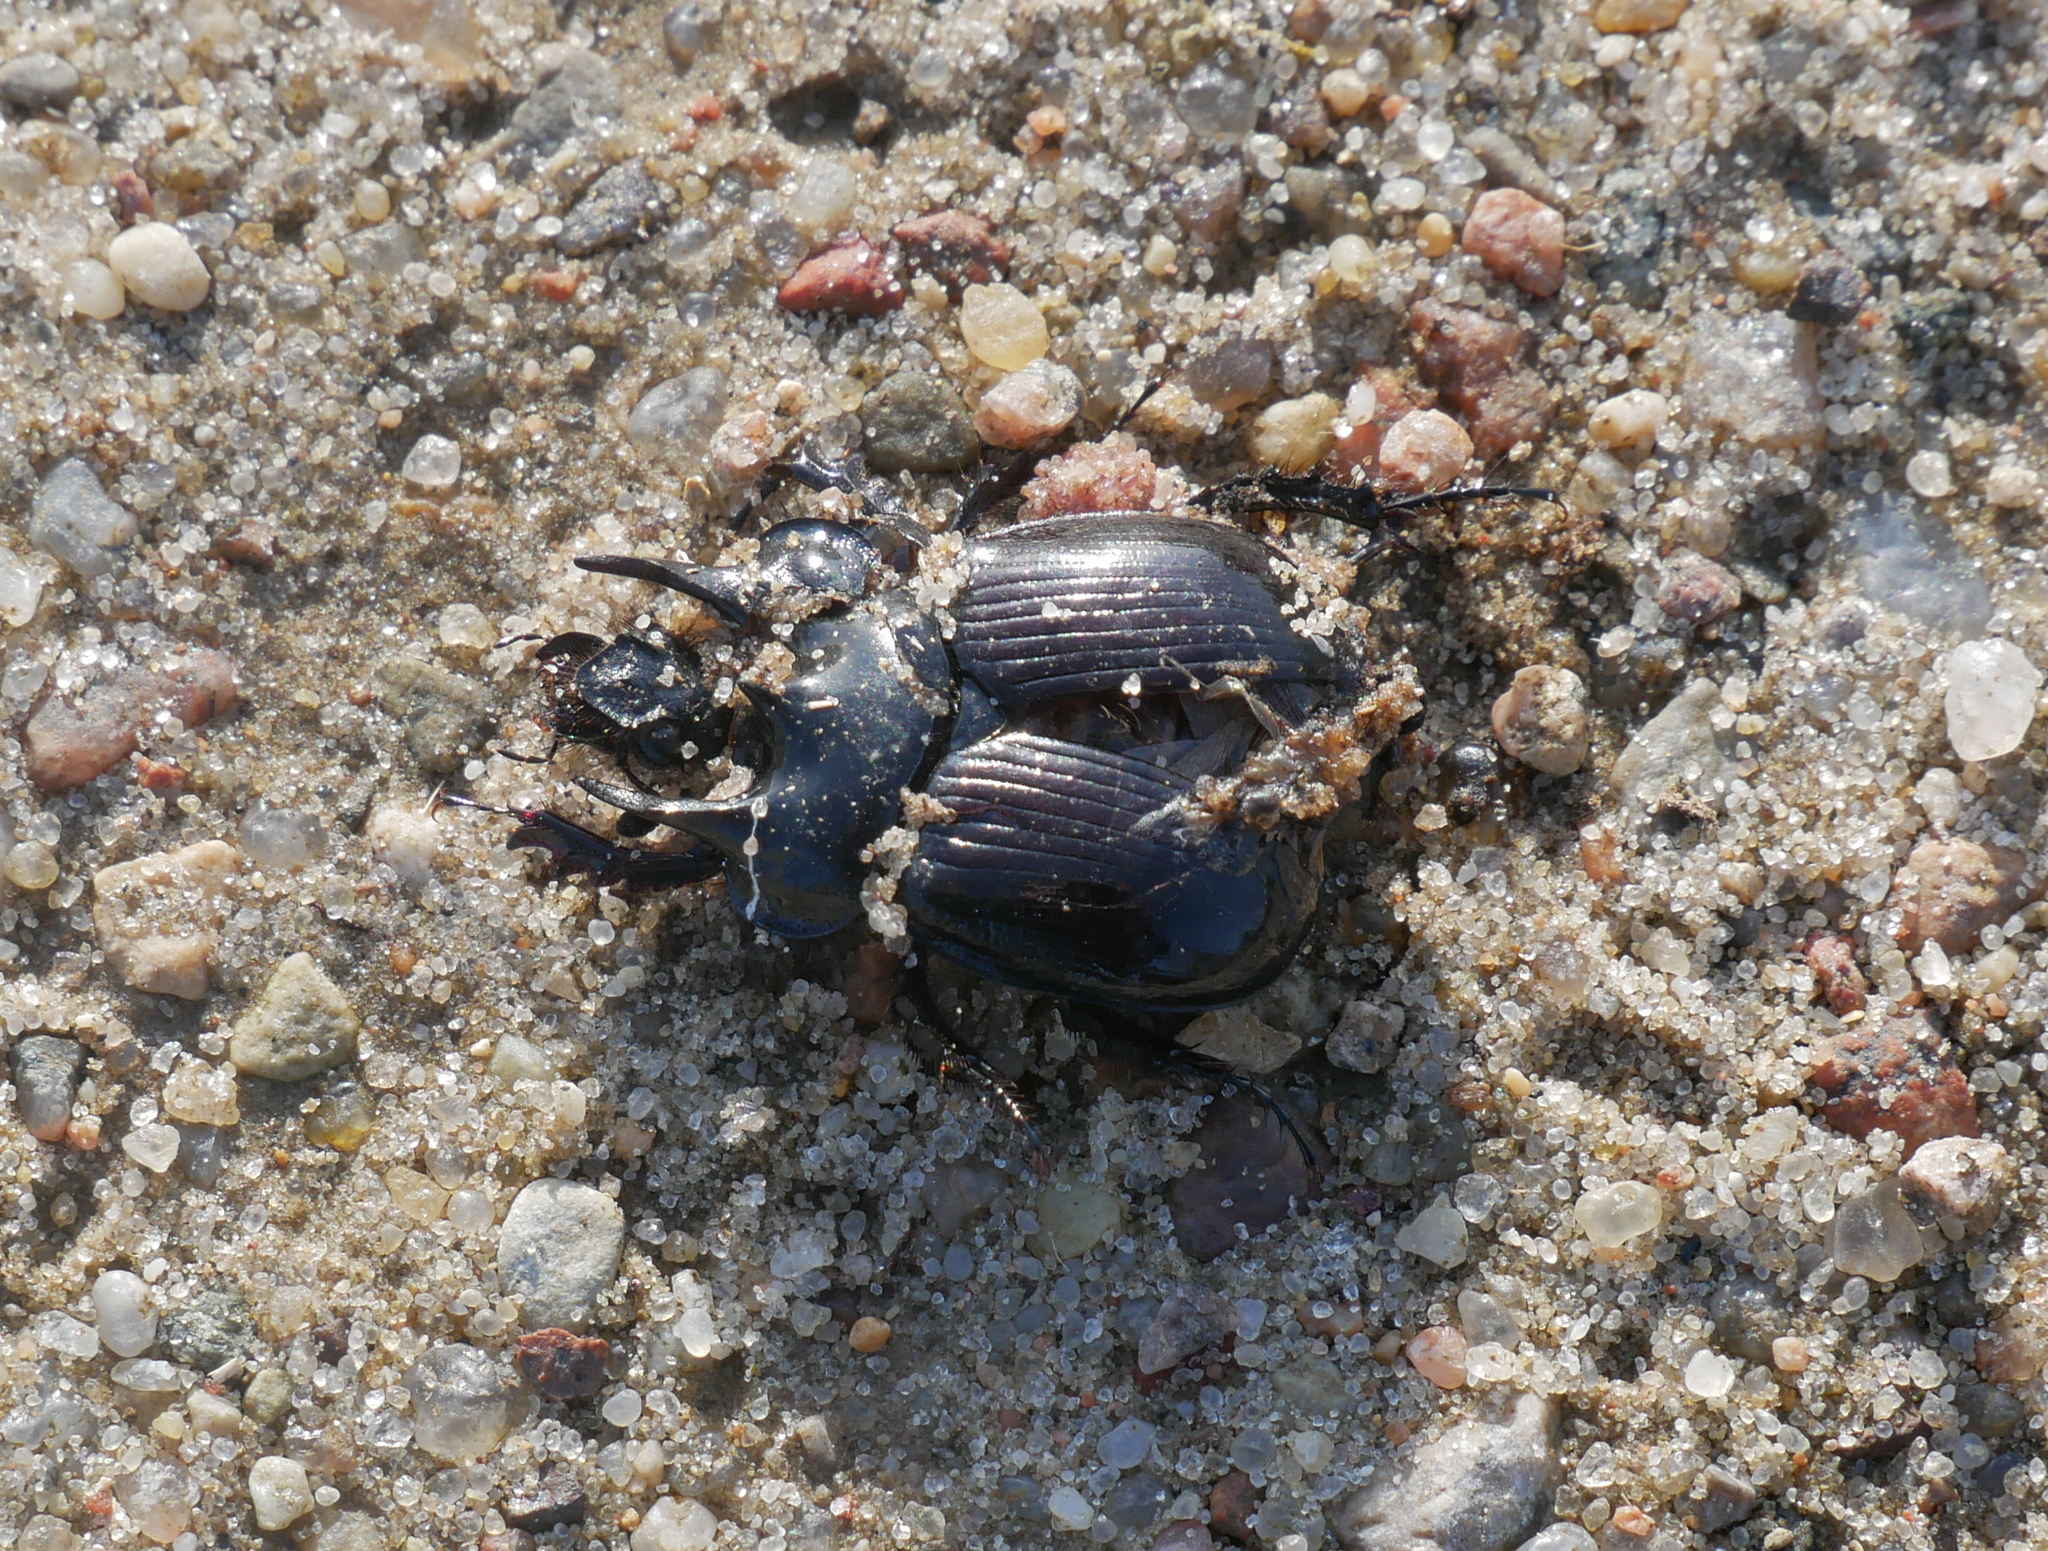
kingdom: Animalia
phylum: Arthropoda
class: Insecta
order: Coleoptera
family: Geotrupidae
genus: Typhaeus
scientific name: Typhaeus typhoeus
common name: Minotaur beetle
